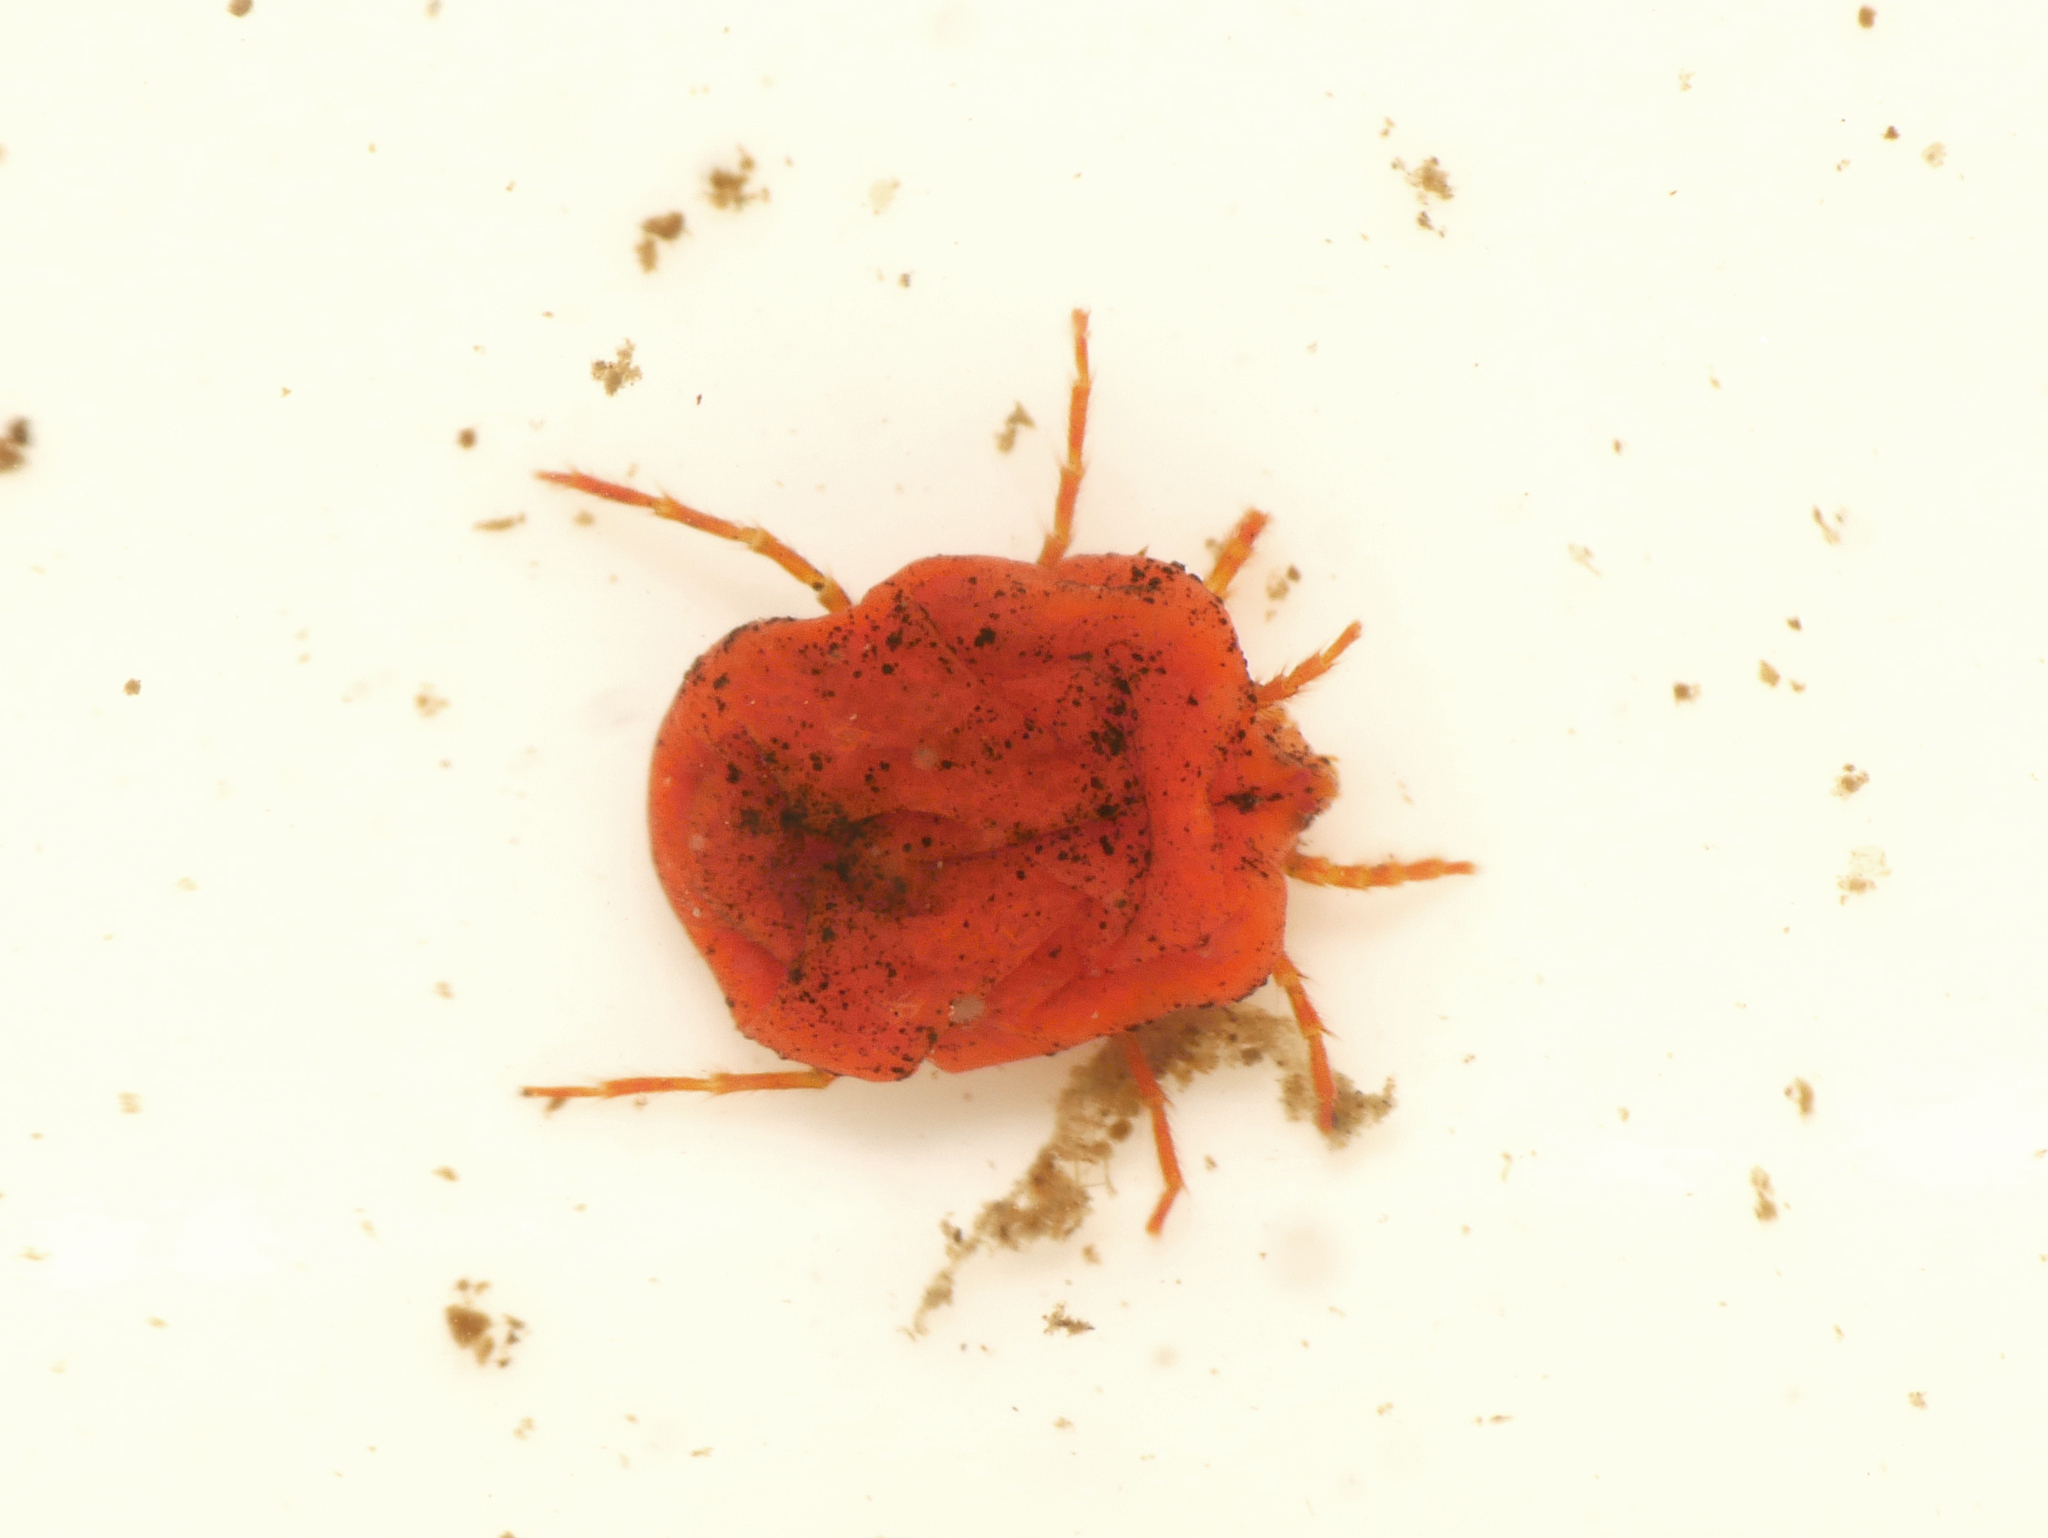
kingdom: Animalia
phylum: Arthropoda
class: Arachnida
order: Trombidiformes
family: Limnocharidae
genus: Limnochares
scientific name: Limnochares aquatica
